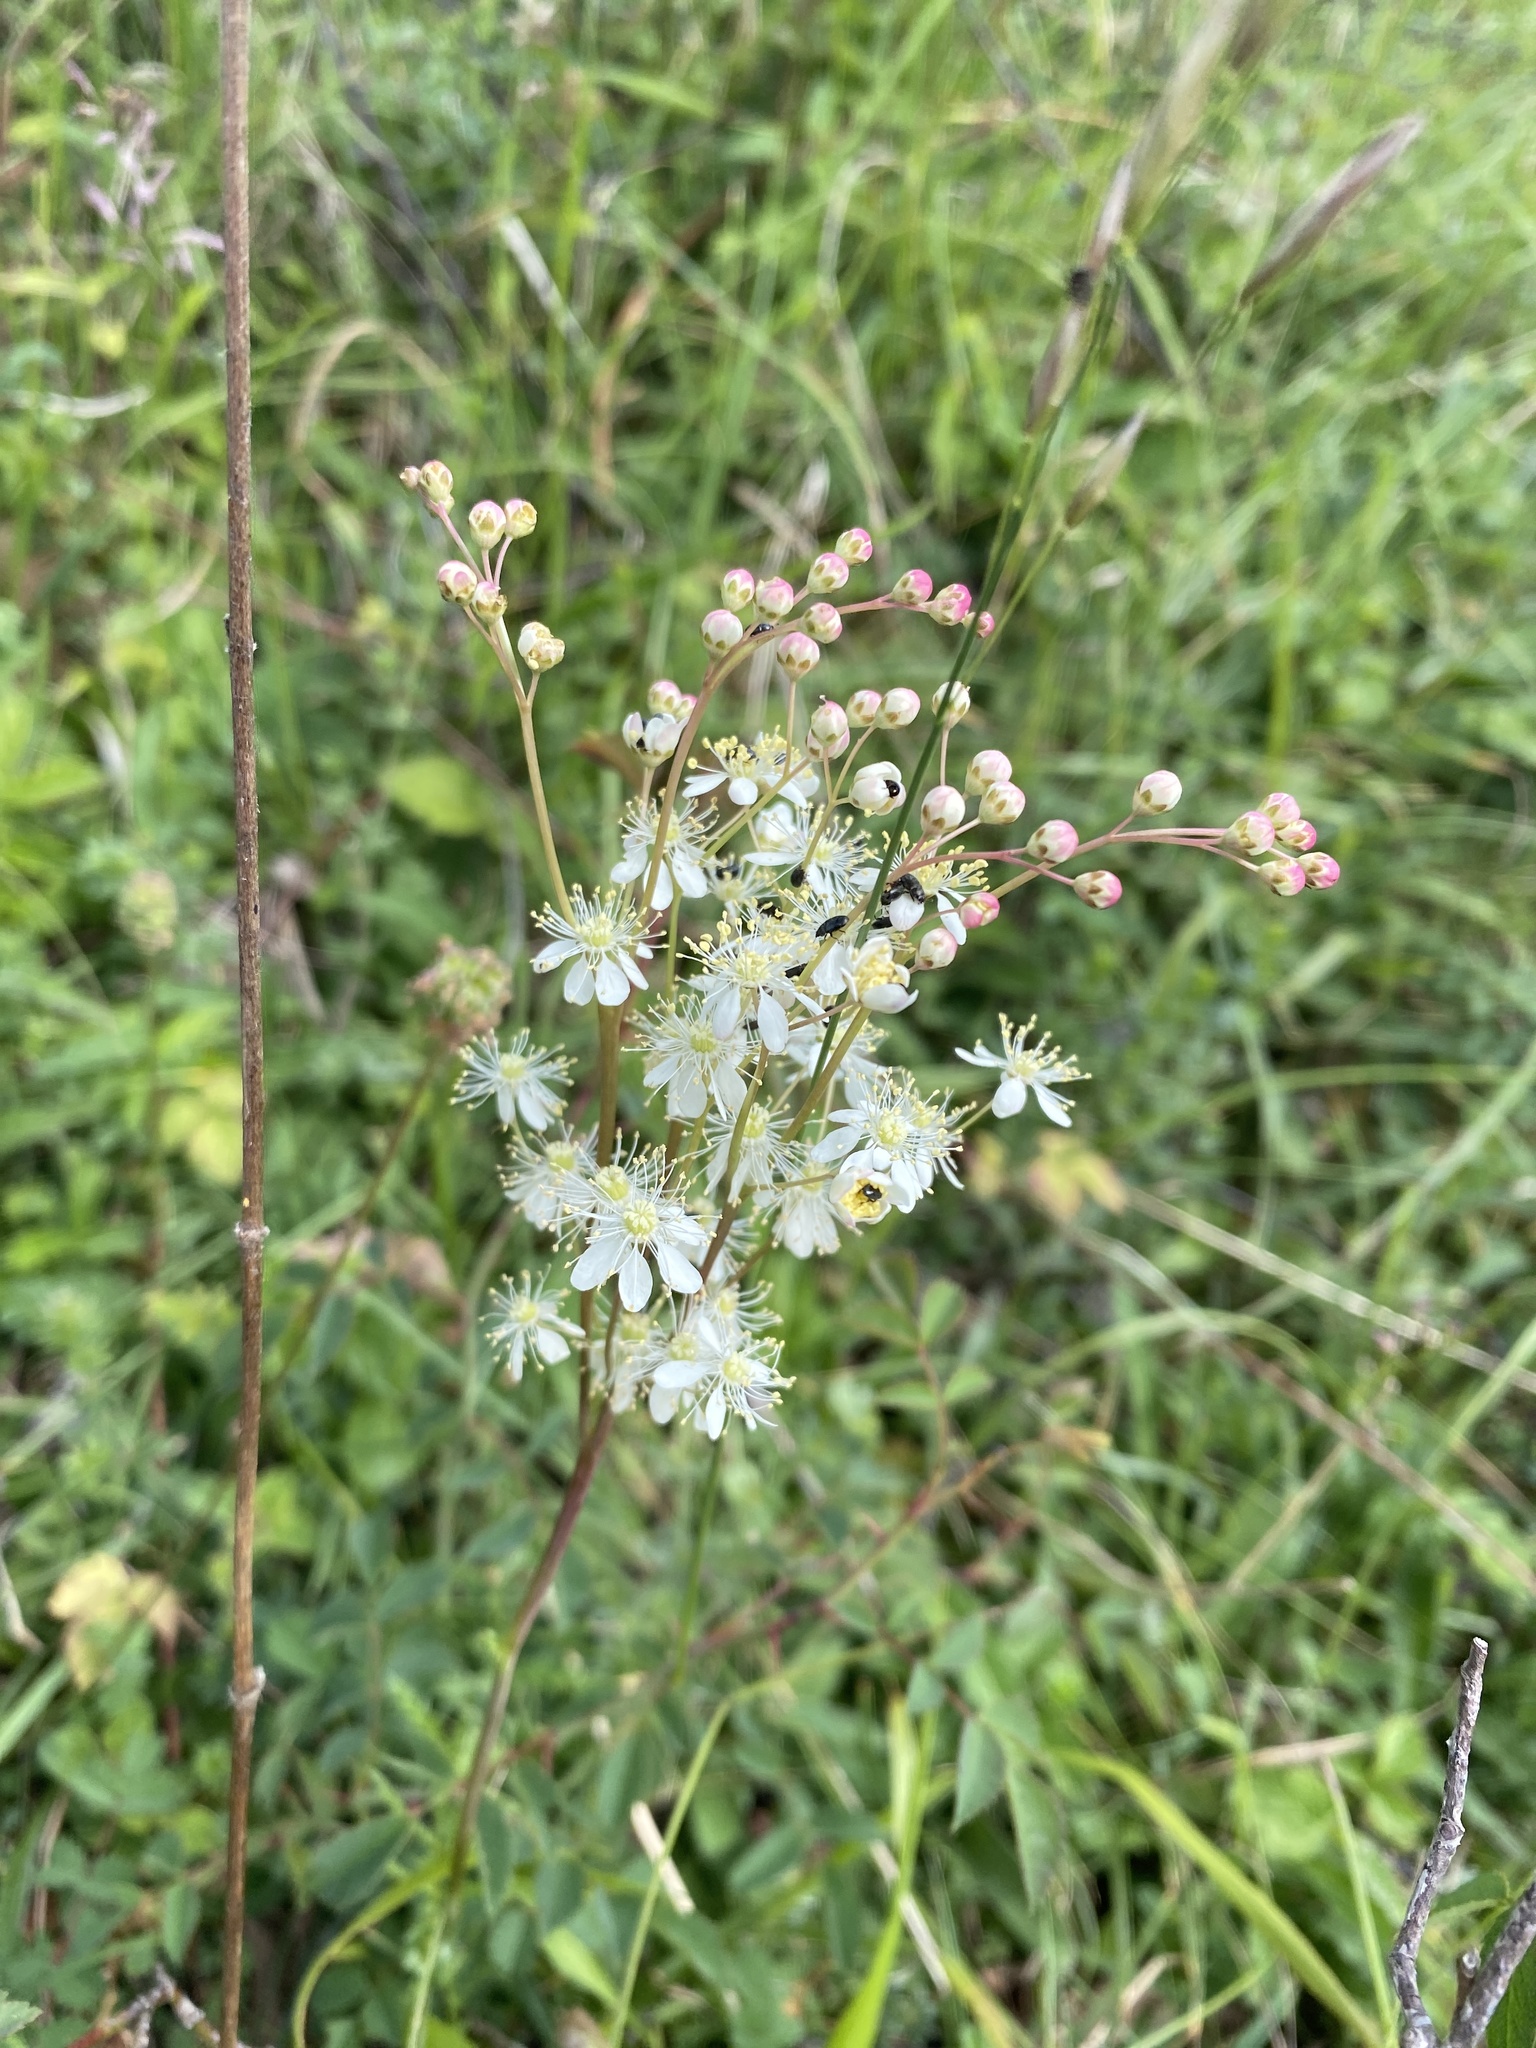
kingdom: Plantae
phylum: Tracheophyta
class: Magnoliopsida
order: Rosales
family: Rosaceae
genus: Filipendula
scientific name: Filipendula vulgaris
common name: Dropwort
